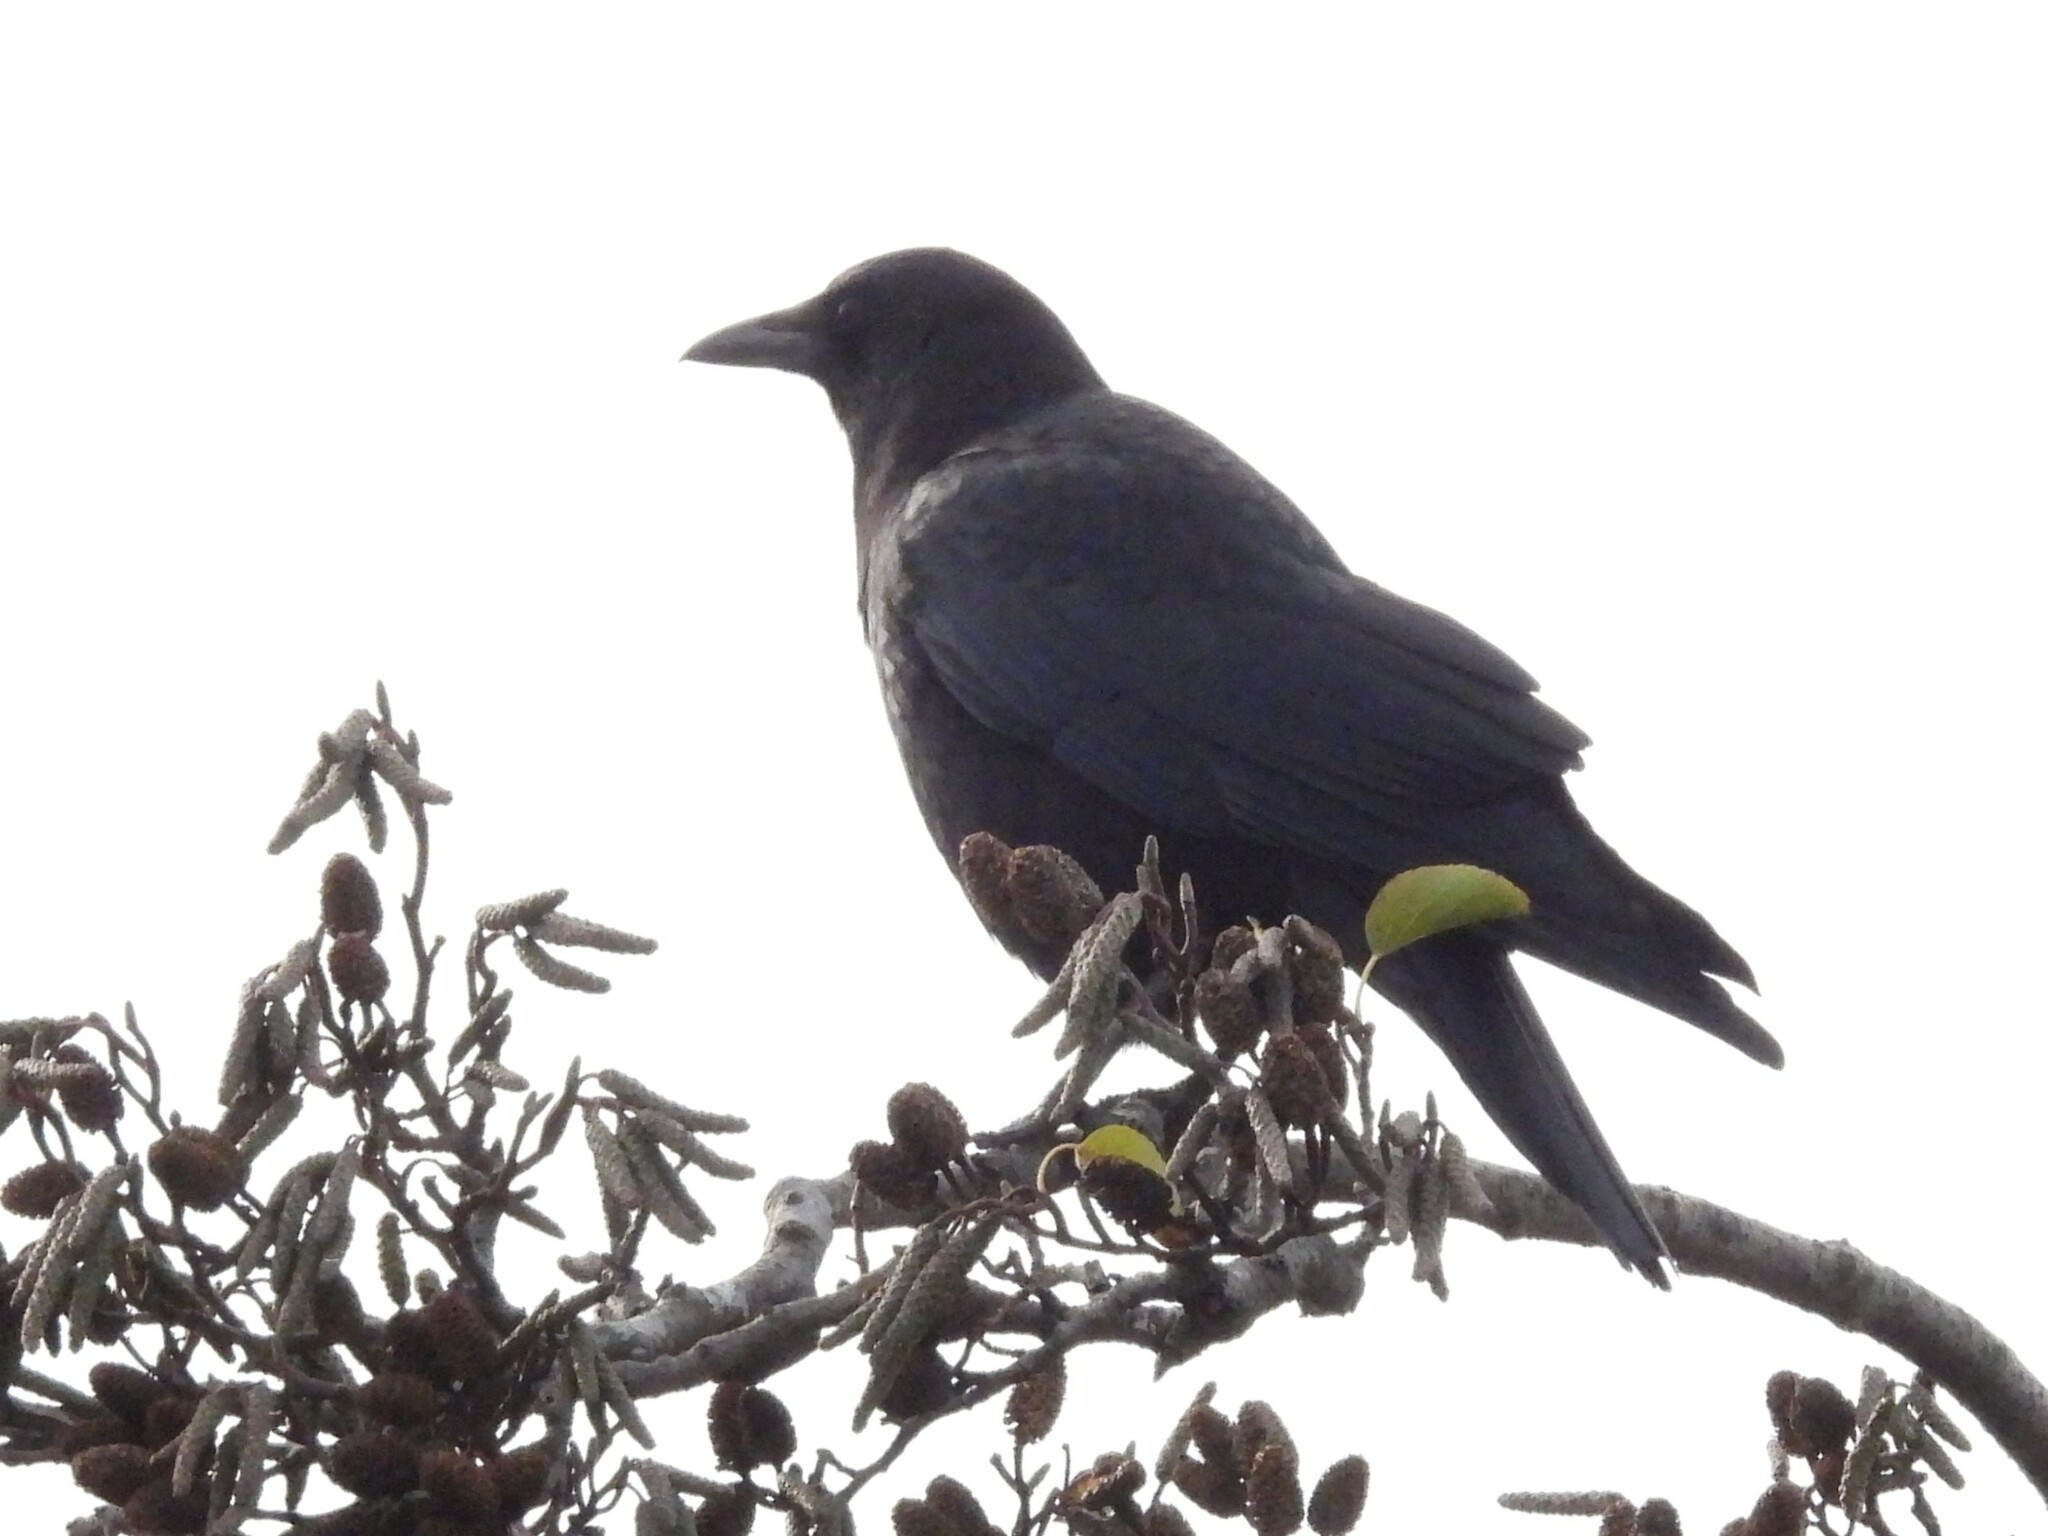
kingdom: Animalia
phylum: Chordata
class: Aves
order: Passeriformes
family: Corvidae
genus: Corvus
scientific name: Corvus brachyrhynchos
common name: American crow
